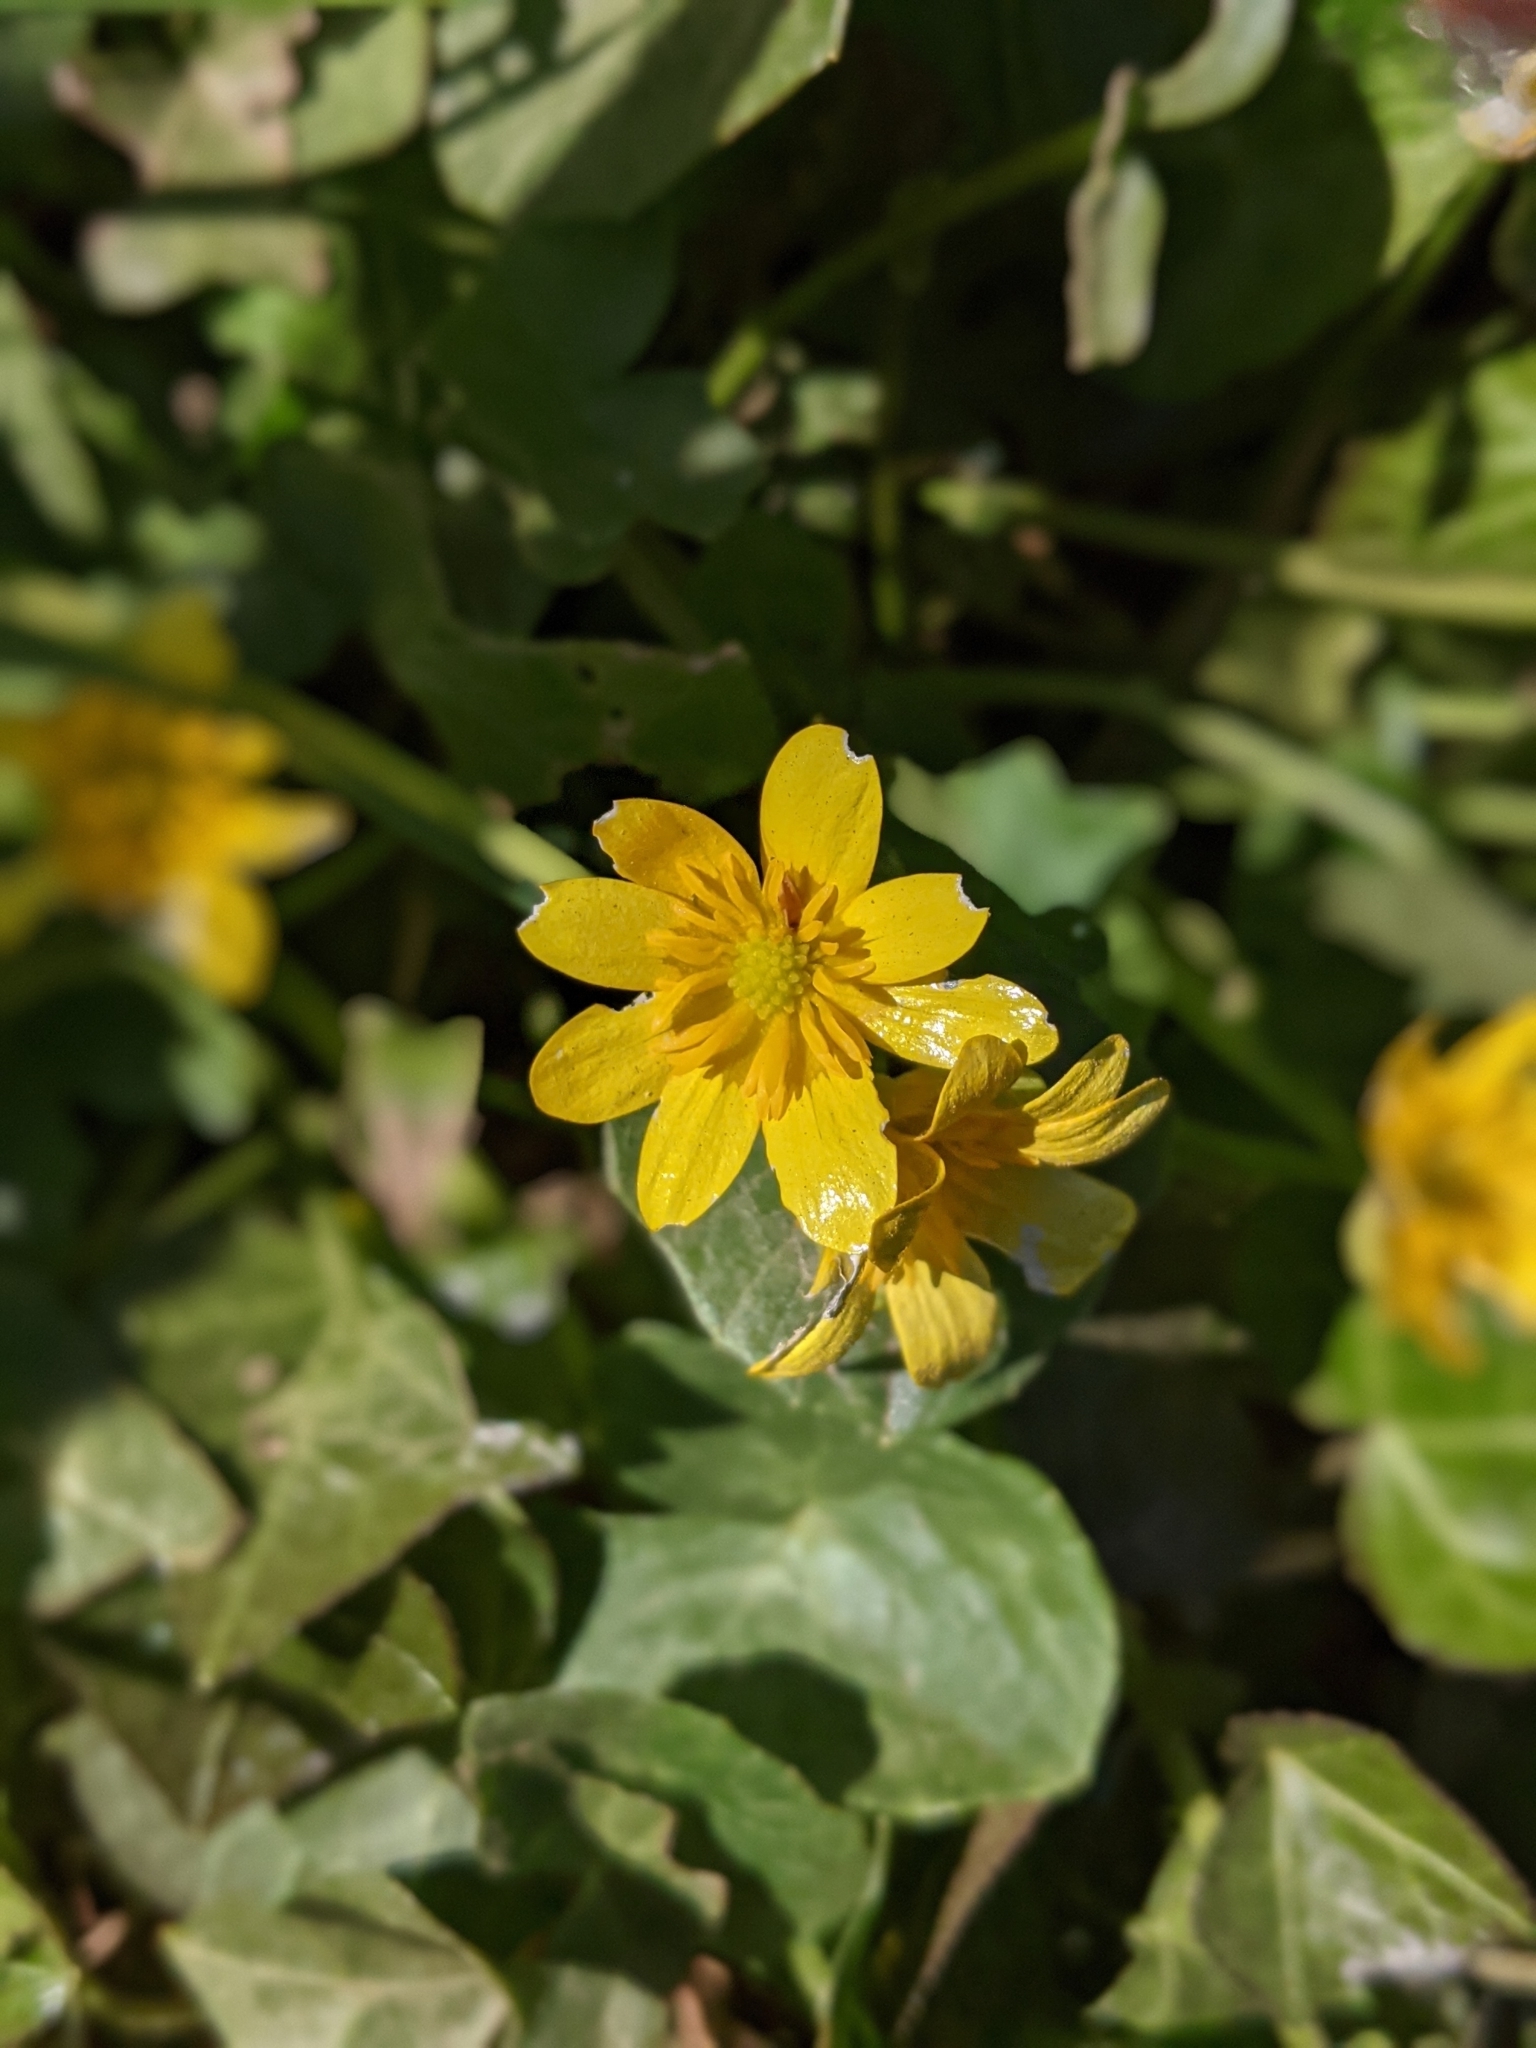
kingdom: Plantae
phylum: Tracheophyta
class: Magnoliopsida
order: Ranunculales
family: Ranunculaceae
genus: Ficaria
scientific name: Ficaria verna
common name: Lesser celandine
